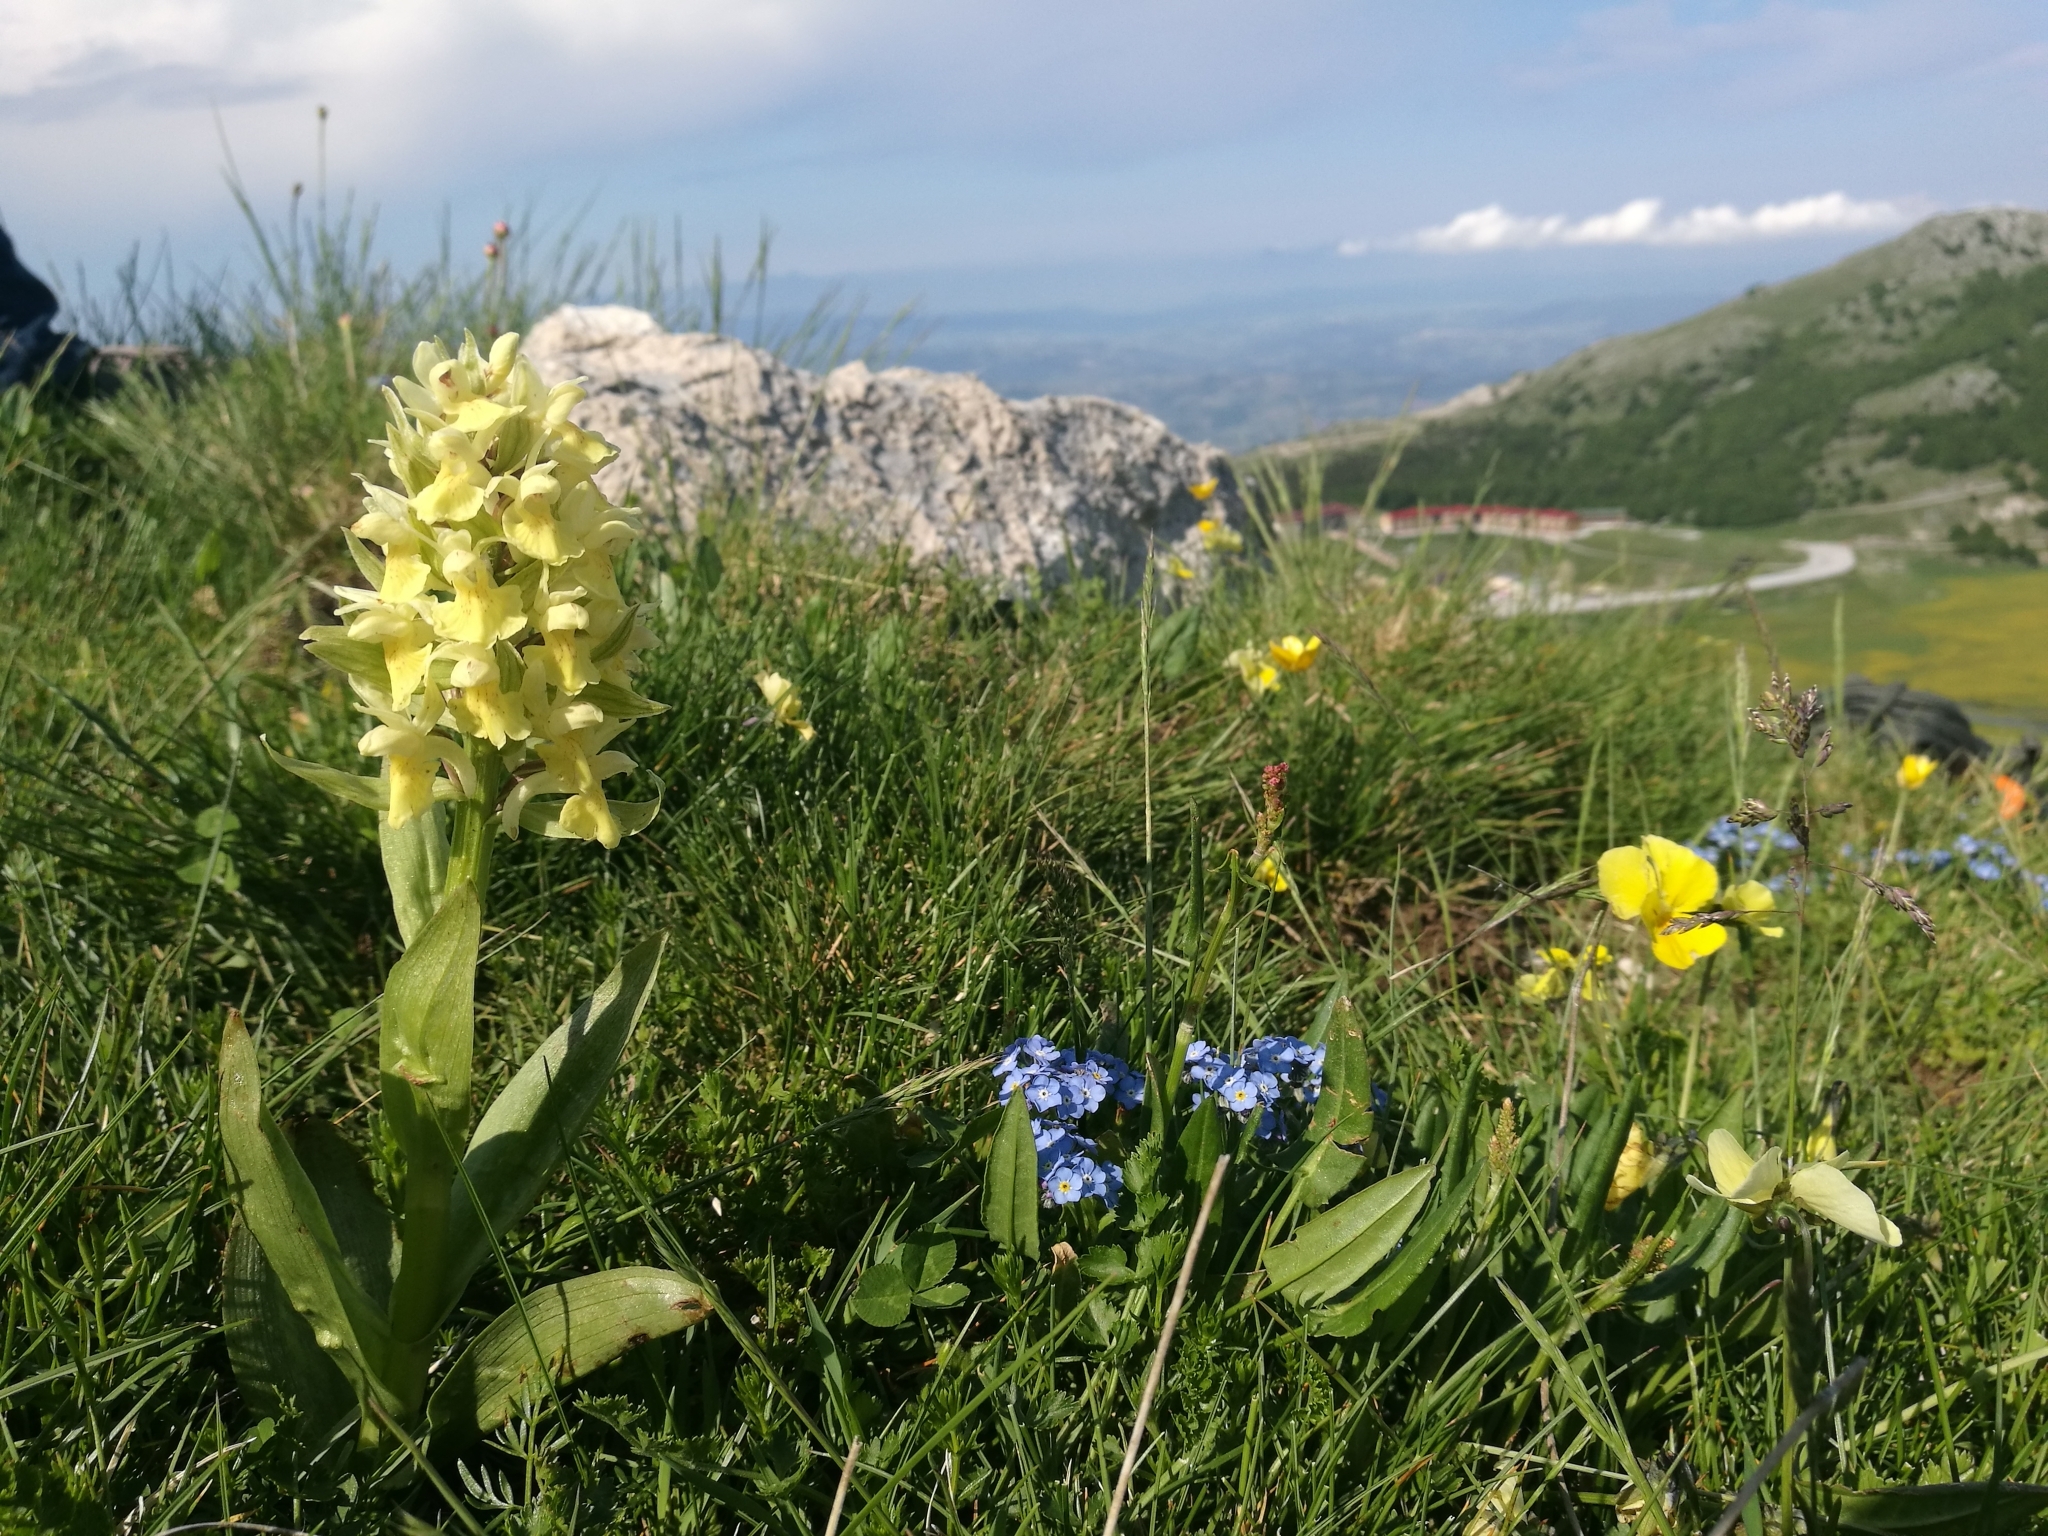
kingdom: Plantae
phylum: Tracheophyta
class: Liliopsida
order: Asparagales
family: Orchidaceae
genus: Dactylorhiza
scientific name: Dactylorhiza sambucina
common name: Elder-flowered orchid
